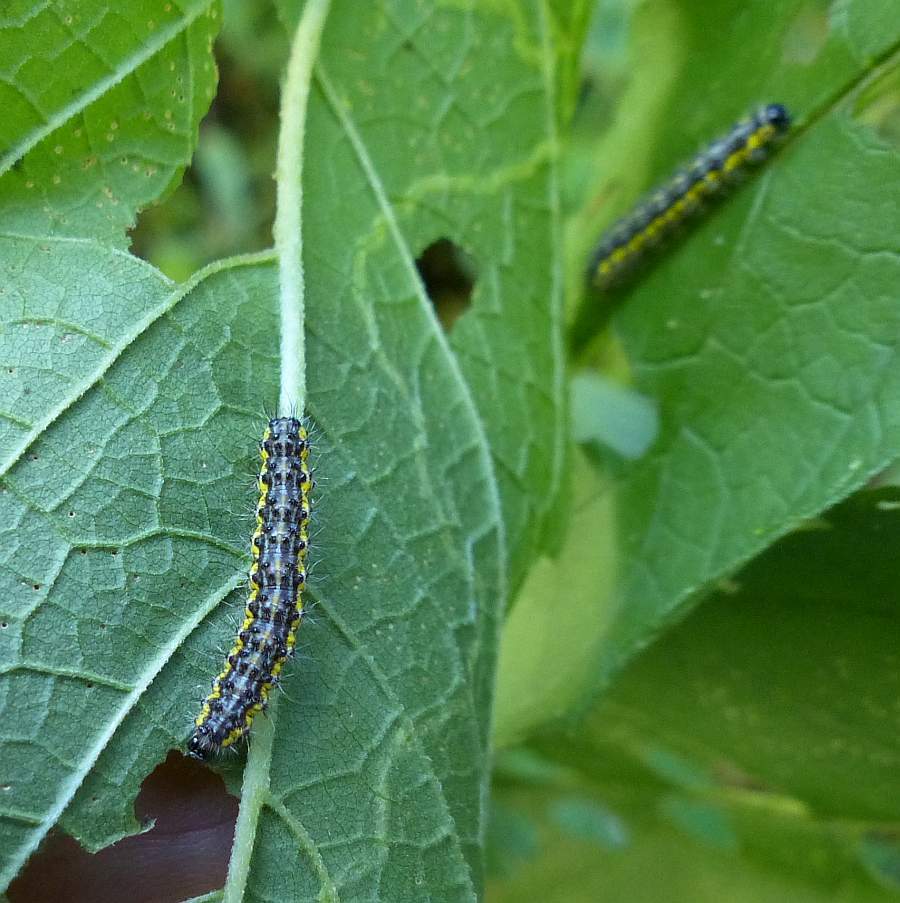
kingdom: Animalia
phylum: Arthropoda
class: Insecta
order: Lepidoptera
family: Erebidae
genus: Haploa
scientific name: Haploa contigua
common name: Neighbor moth
